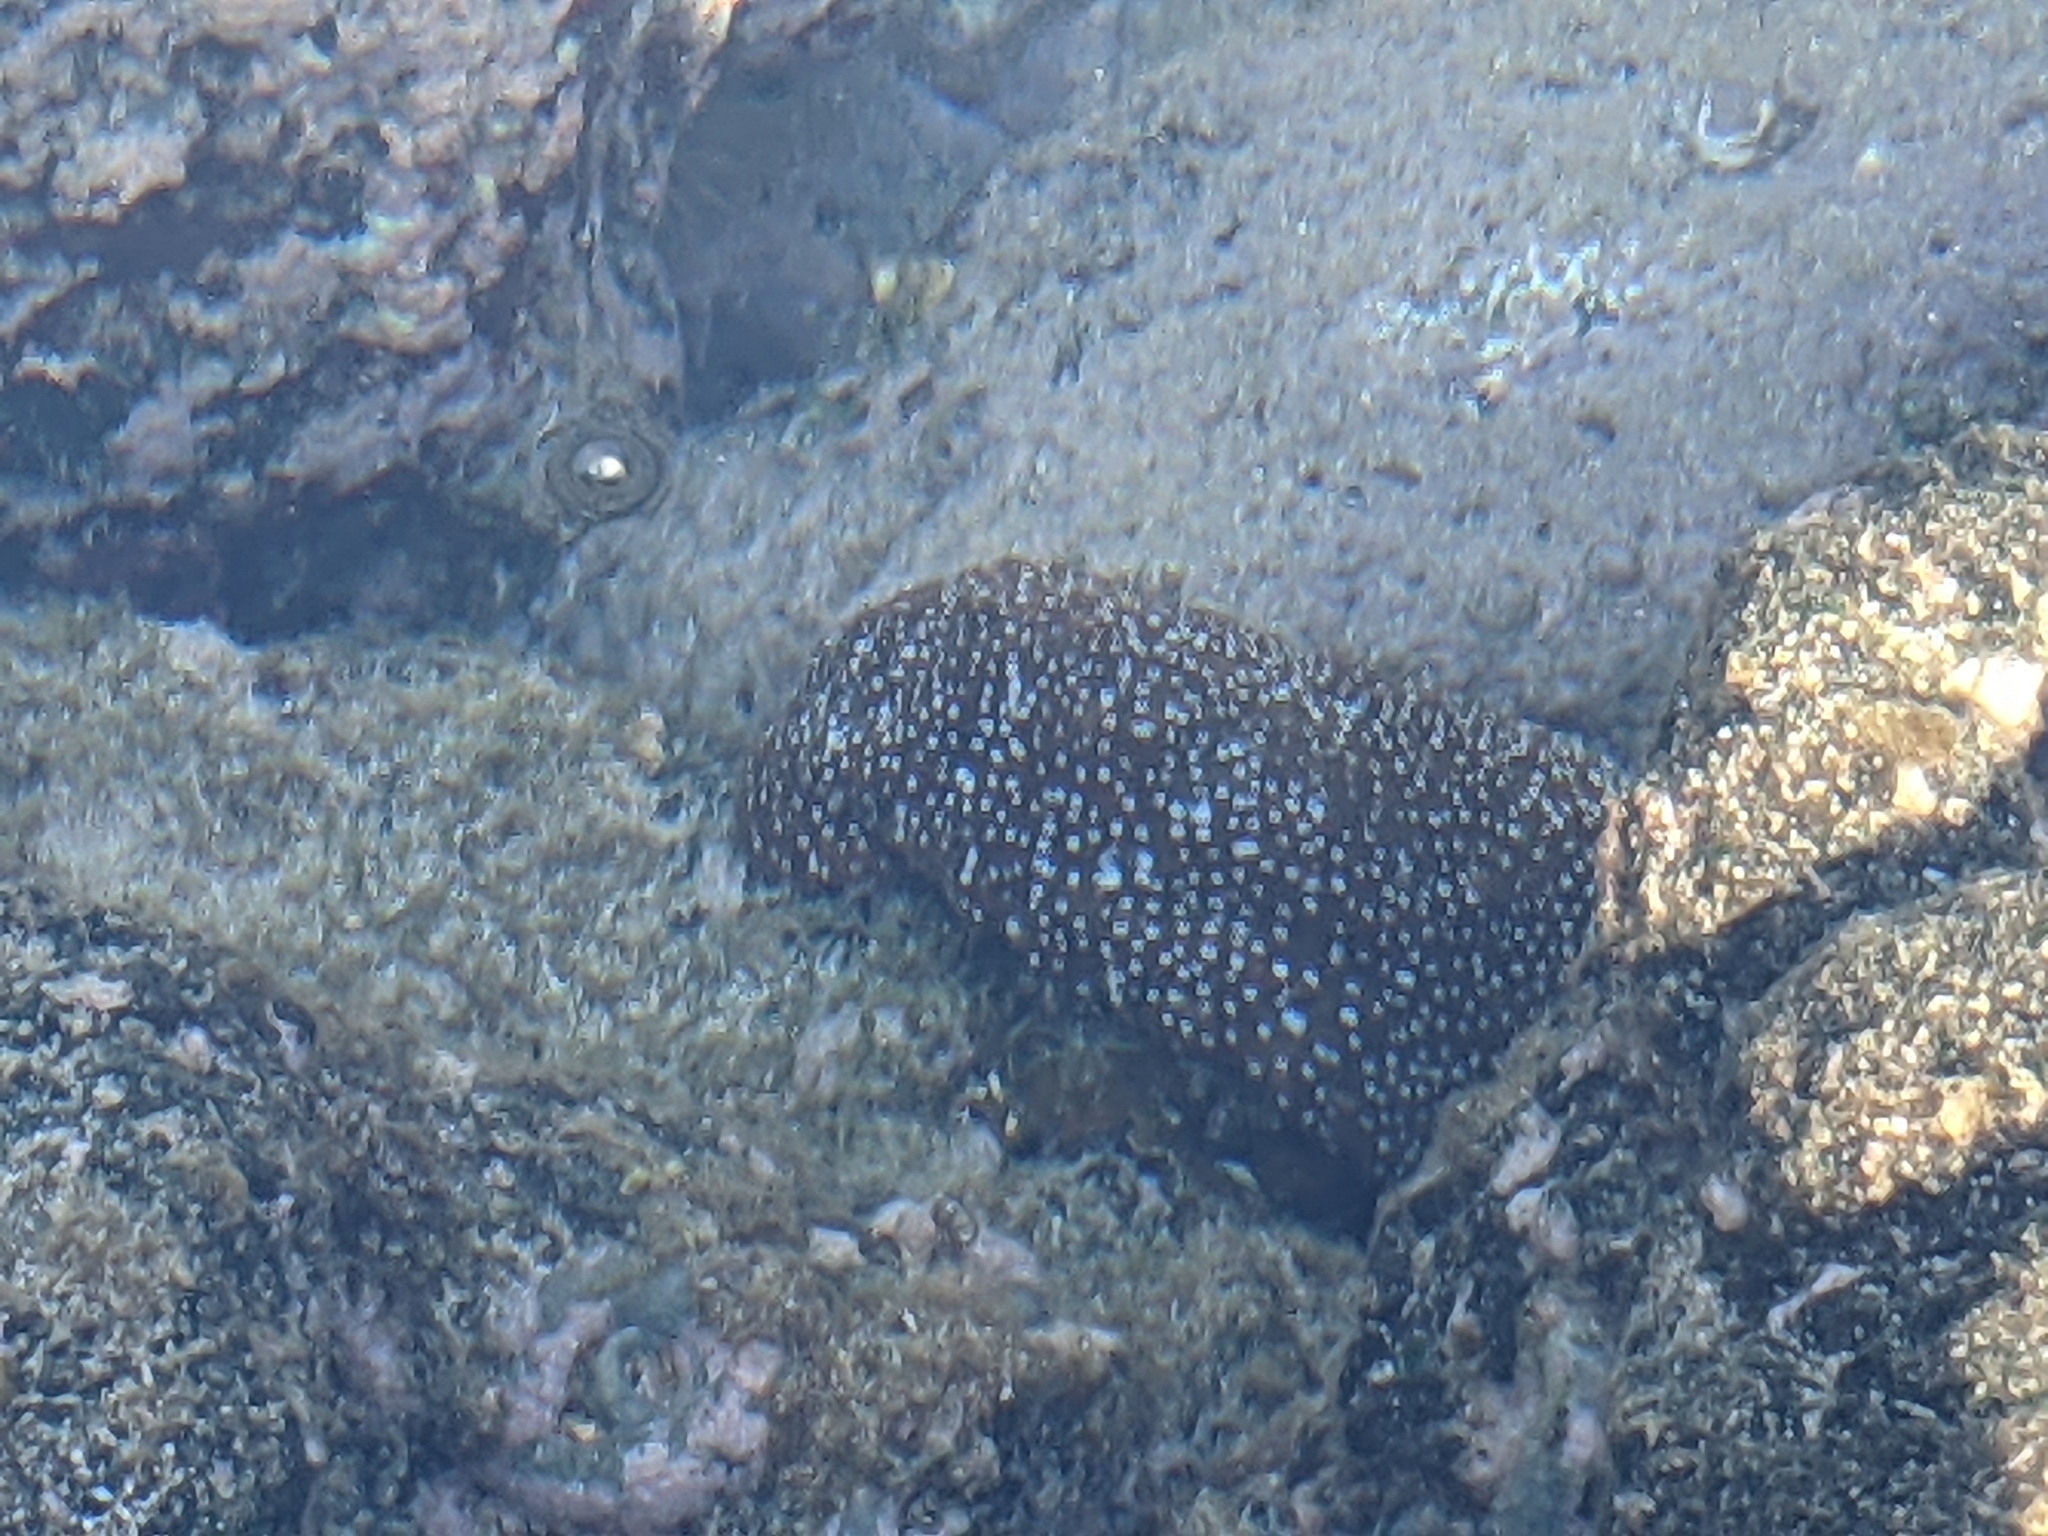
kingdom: Animalia
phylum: Echinodermata
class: Holothuroidea
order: Holothuriida
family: Holothuriidae
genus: Actinopyga
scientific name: Actinopyga varians
